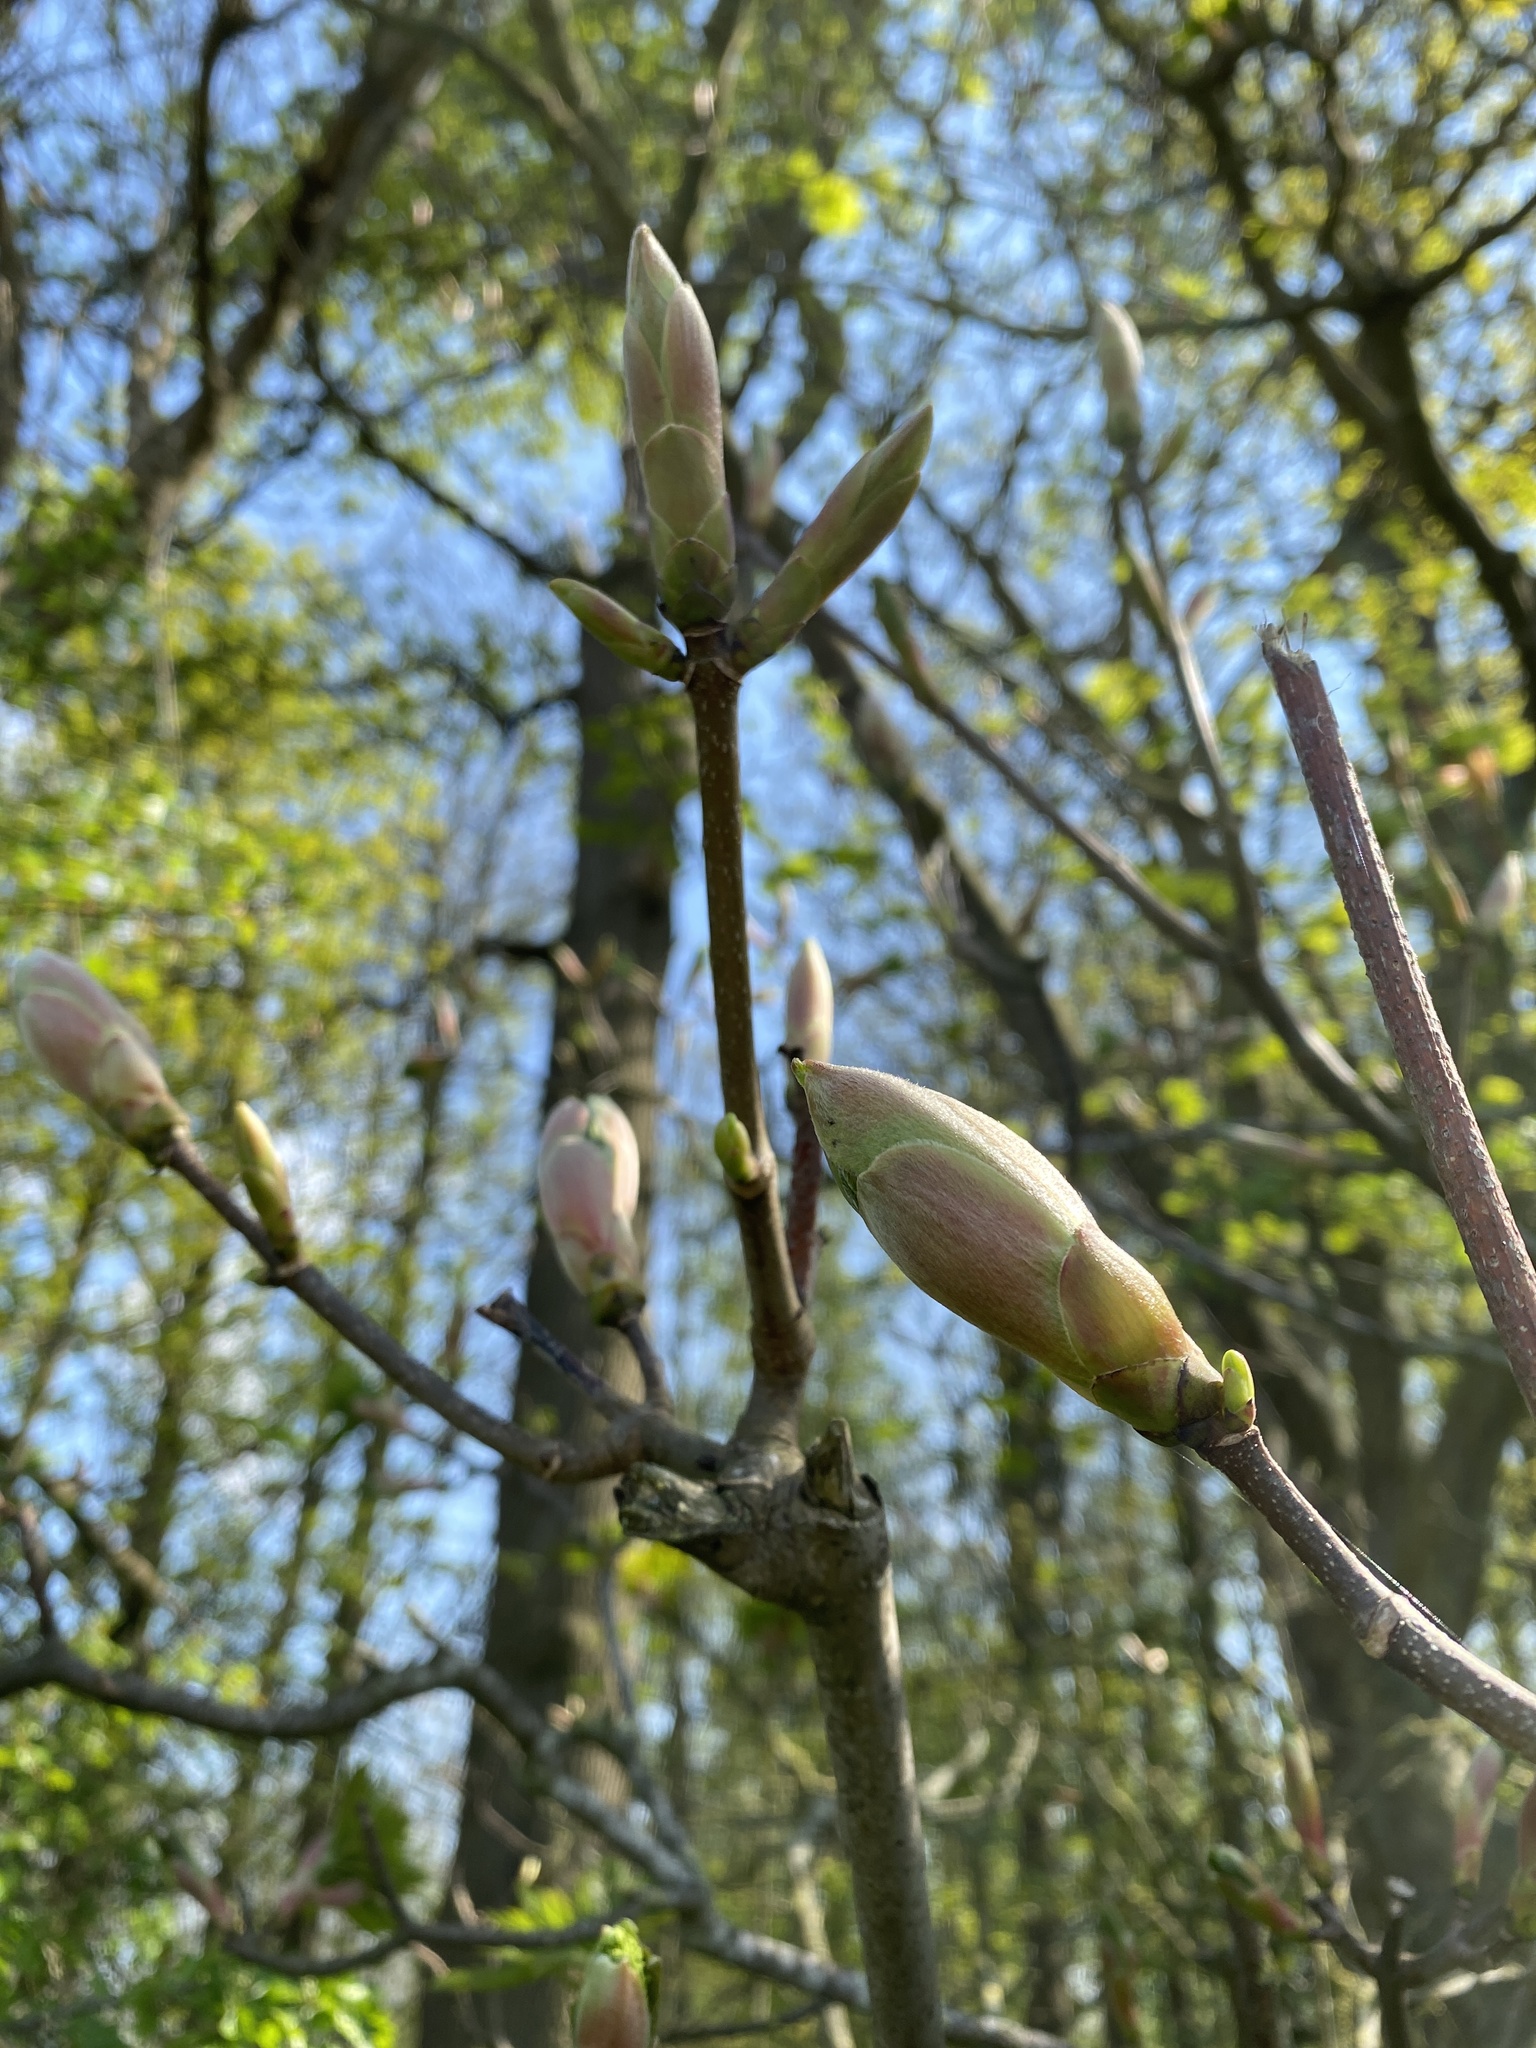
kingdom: Plantae
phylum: Tracheophyta
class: Magnoliopsida
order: Sapindales
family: Sapindaceae
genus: Acer
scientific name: Acer pseudoplatanus
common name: Sycamore
